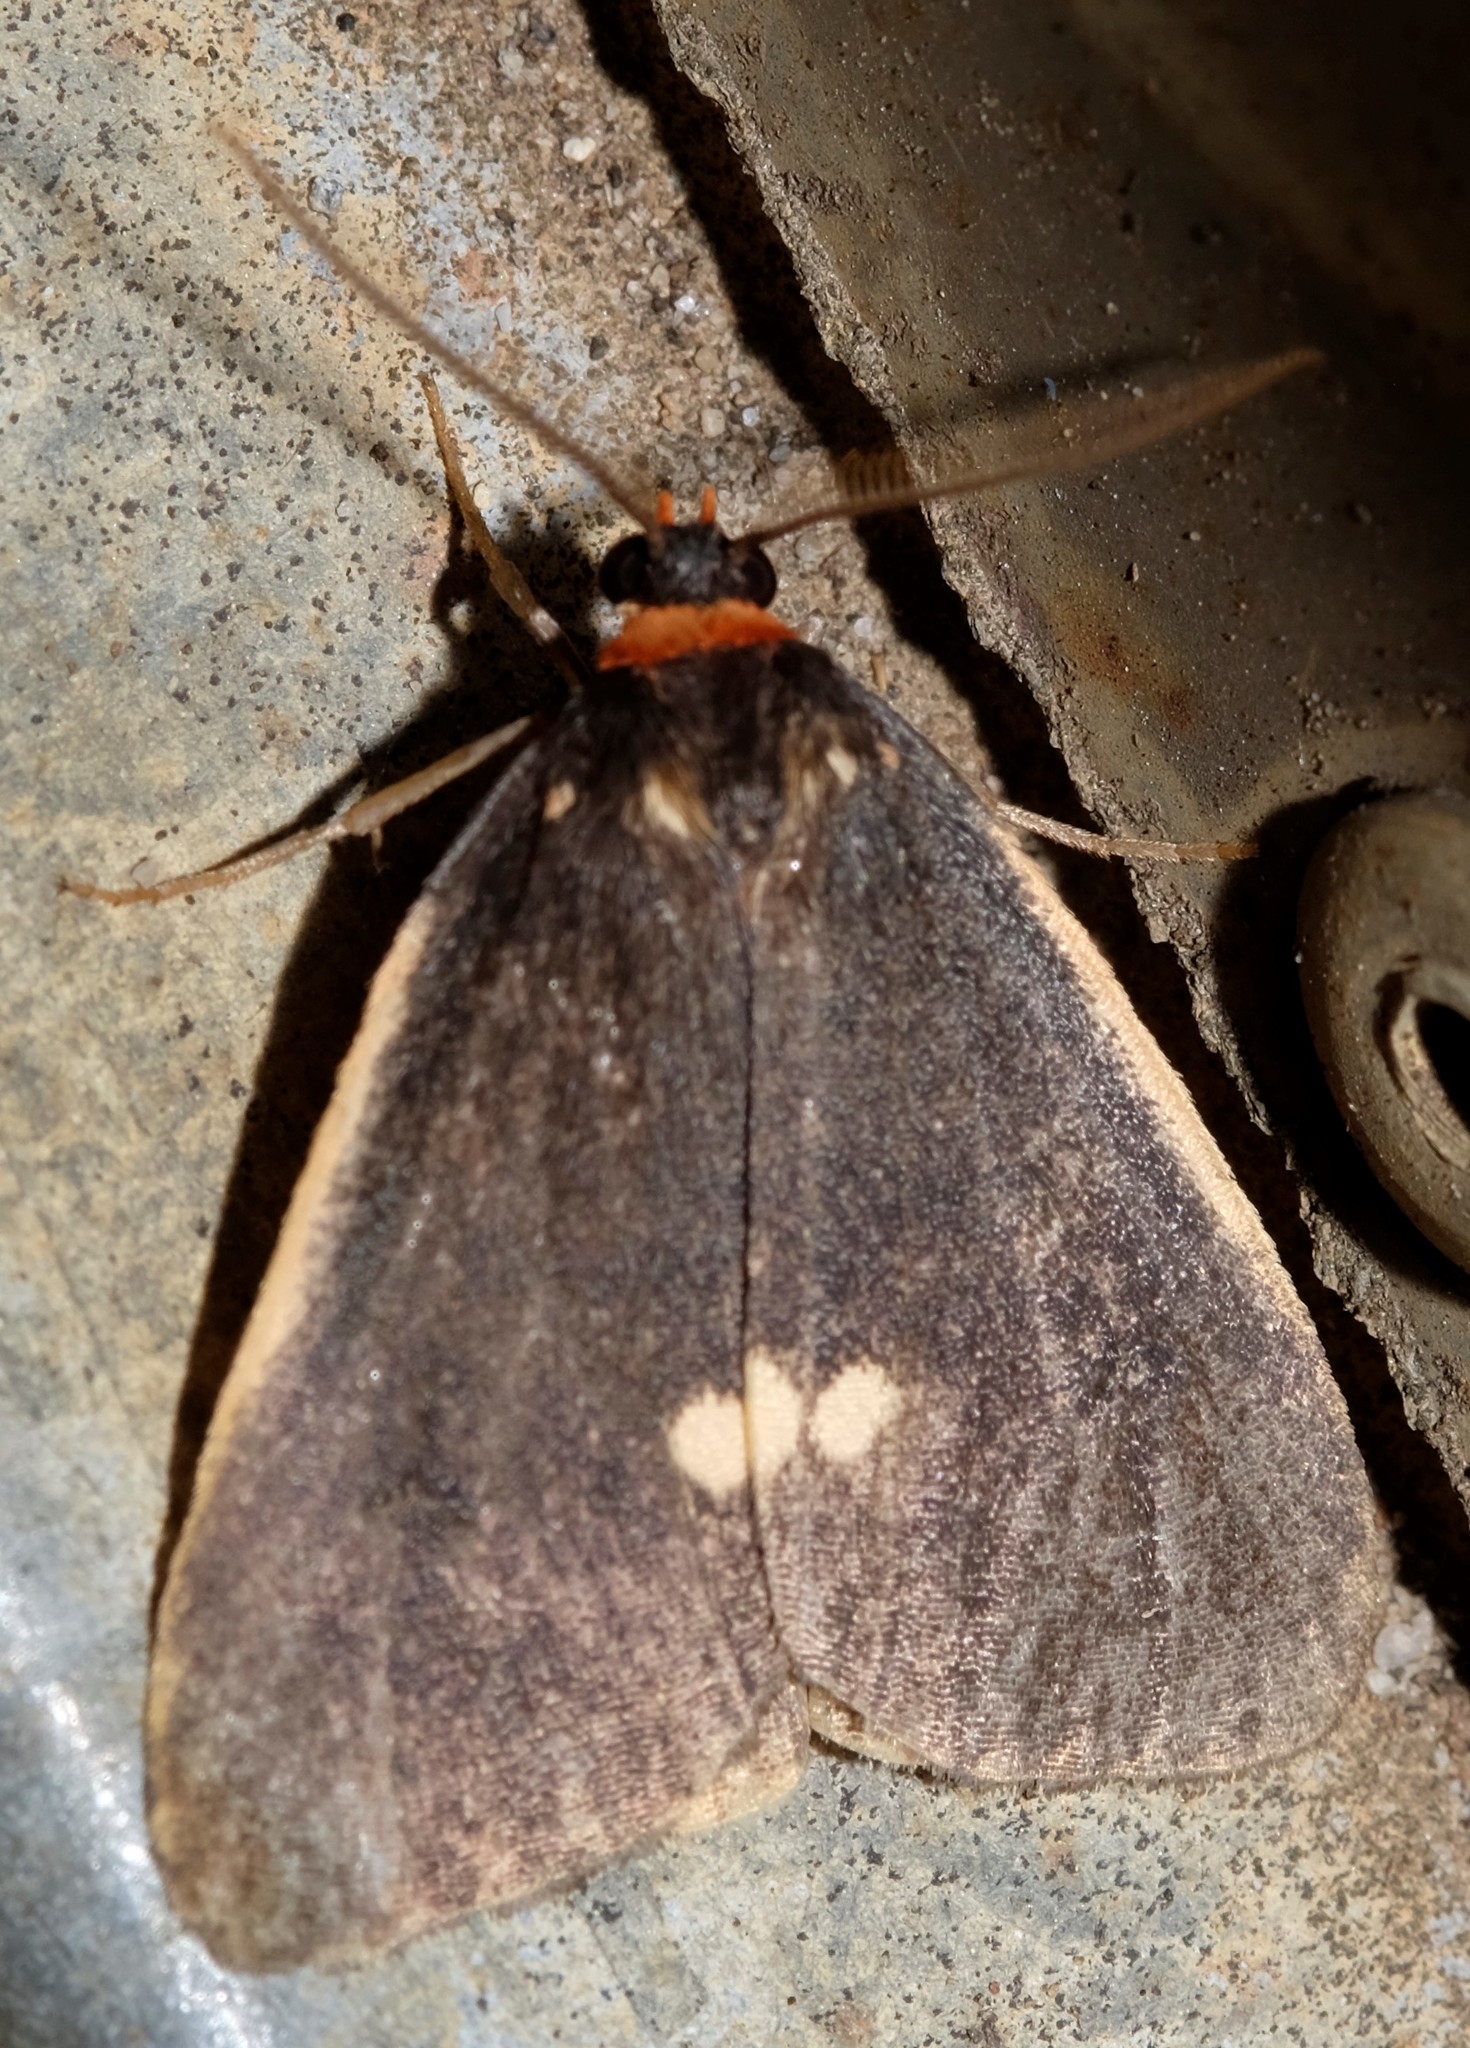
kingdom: Animalia
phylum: Arthropoda
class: Insecta
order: Lepidoptera
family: Erebidae
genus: Castulo
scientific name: Castulo doubledayi
